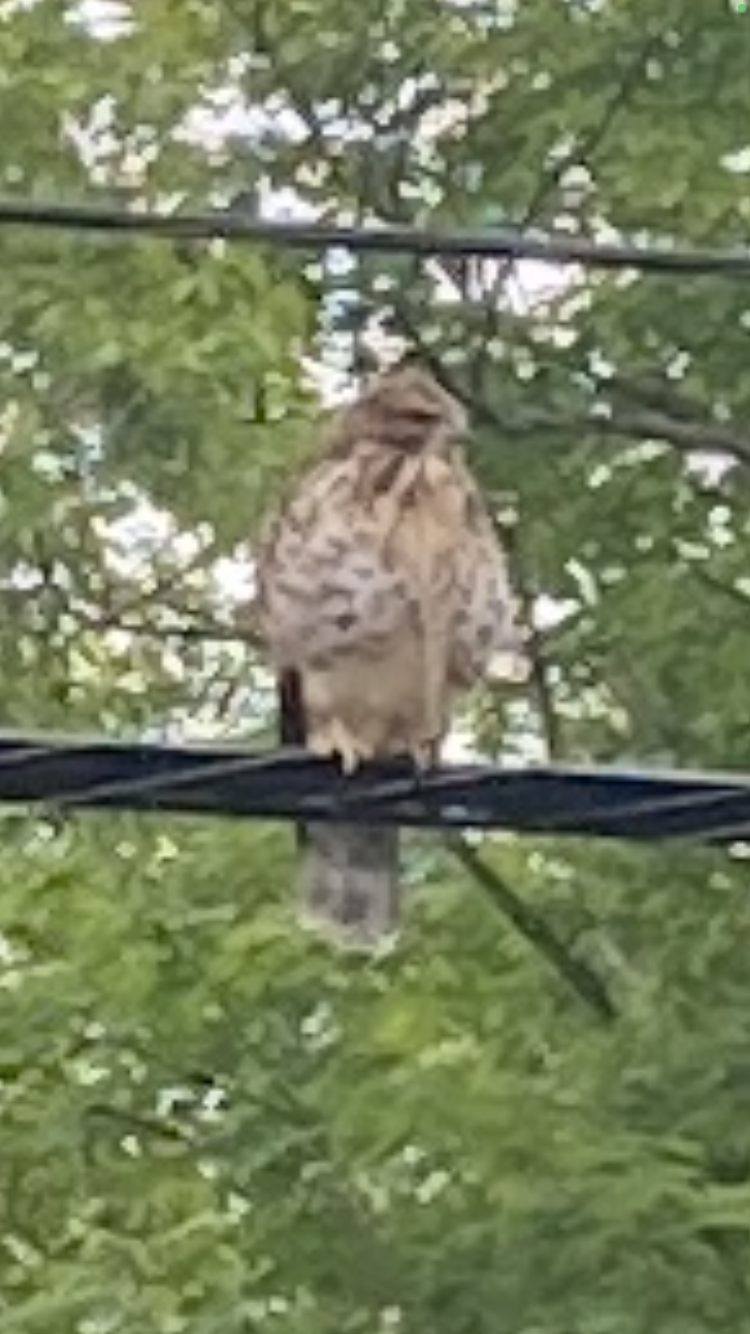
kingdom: Animalia
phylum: Chordata
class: Aves
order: Accipitriformes
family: Accipitridae
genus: Buteo
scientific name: Buteo lineatus
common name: Red-shouldered hawk
